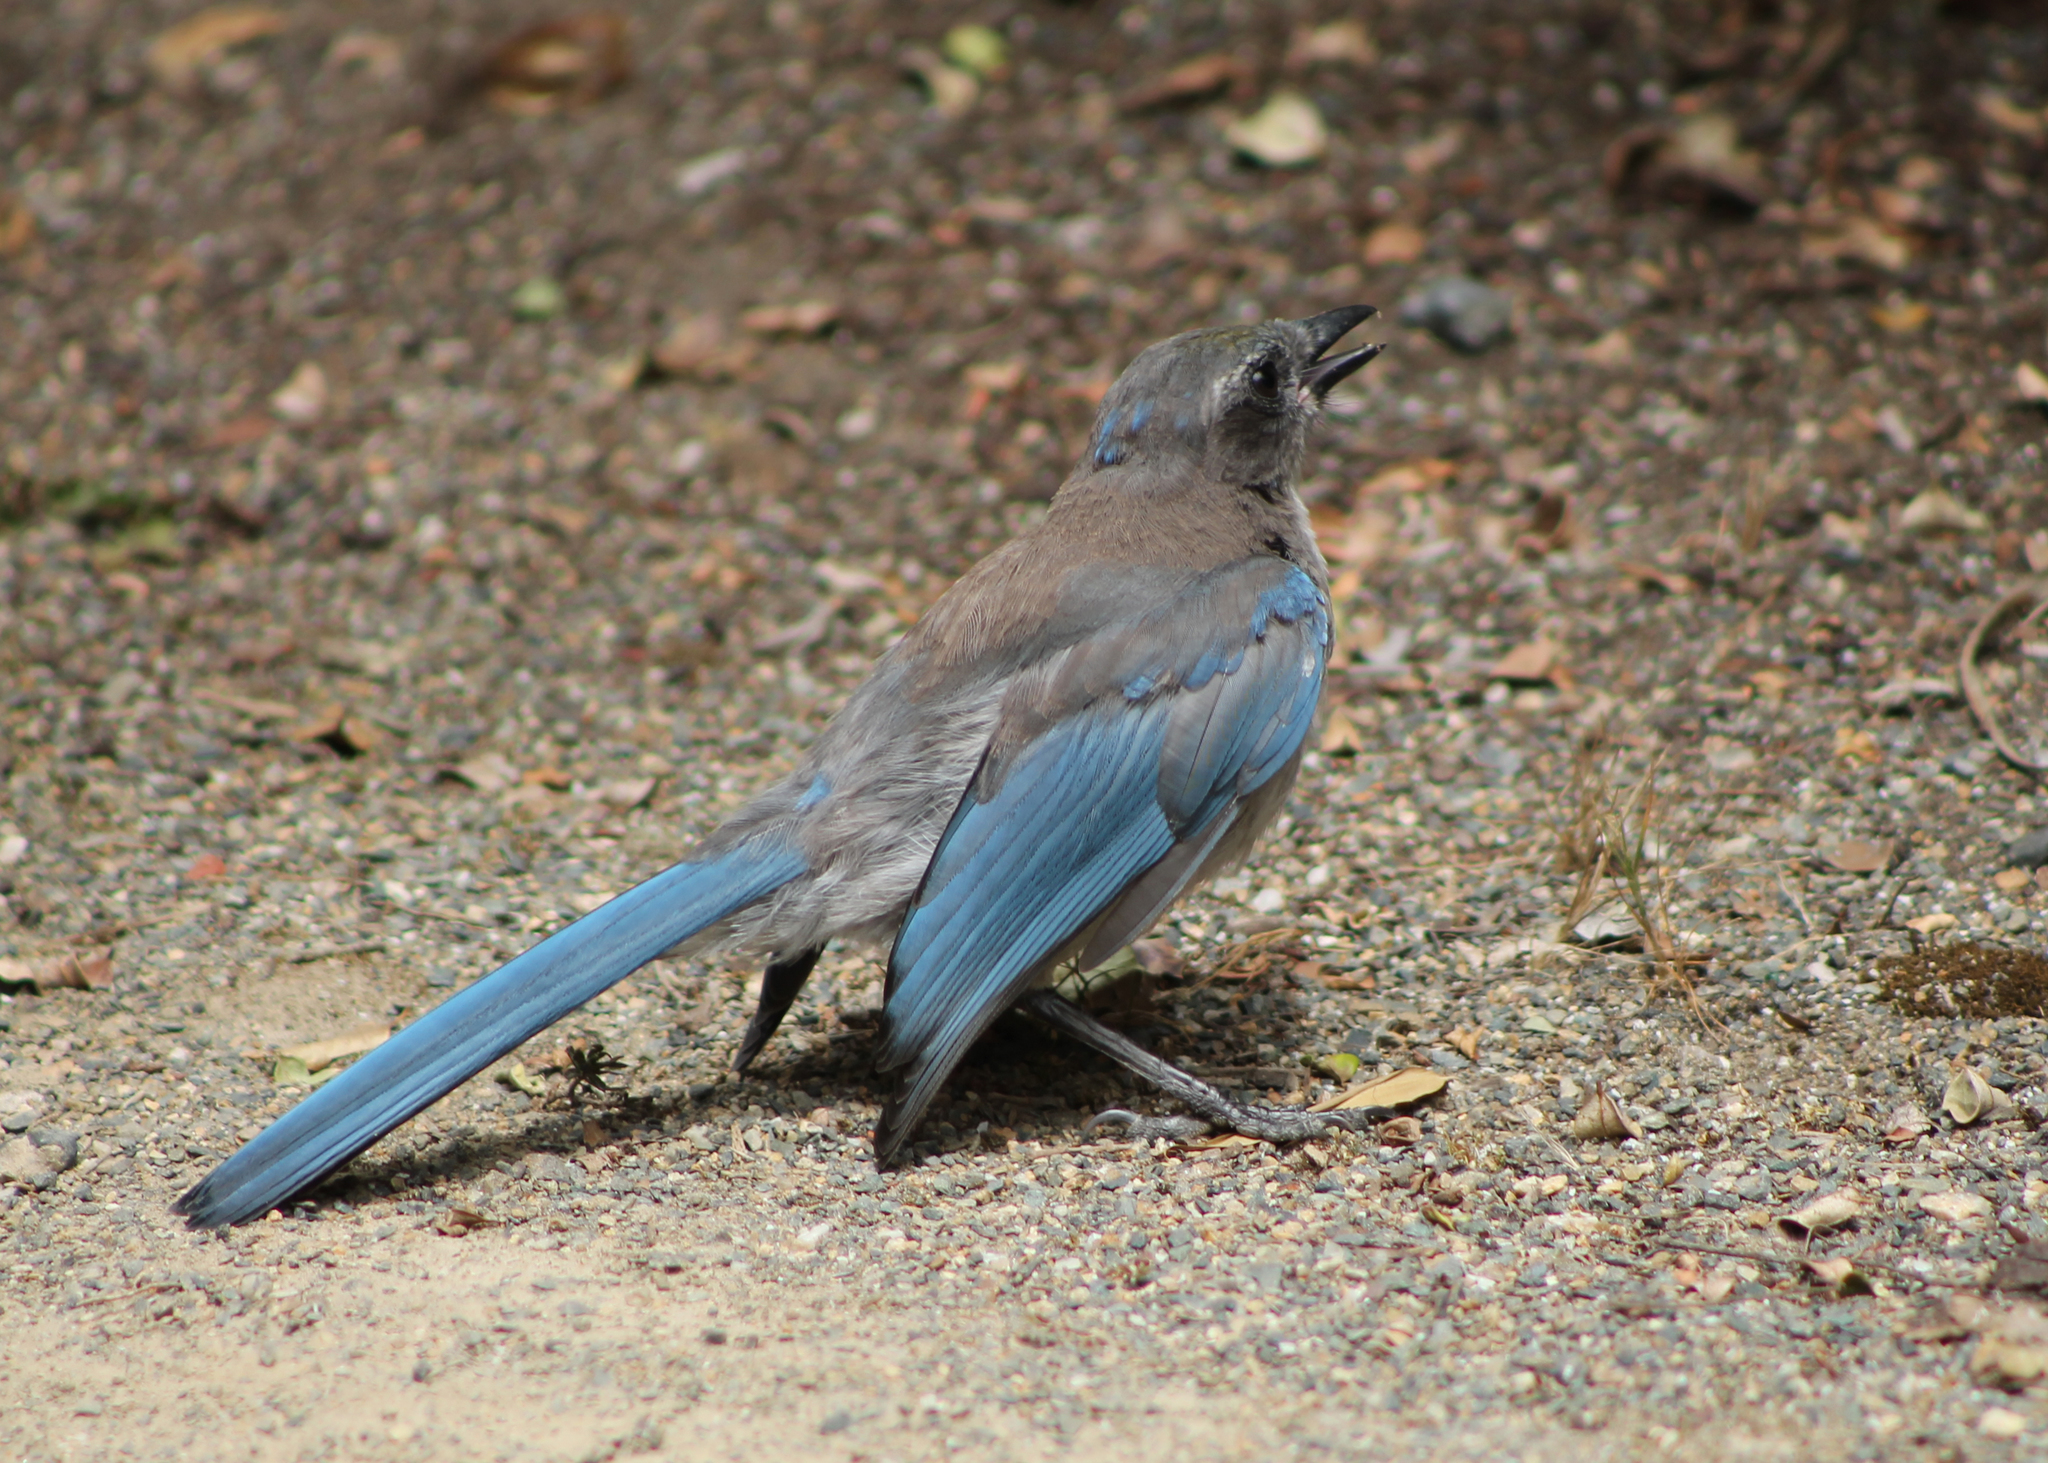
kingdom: Animalia
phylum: Chordata
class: Aves
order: Passeriformes
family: Corvidae
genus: Aphelocoma
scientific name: Aphelocoma californica
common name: California scrub-jay
